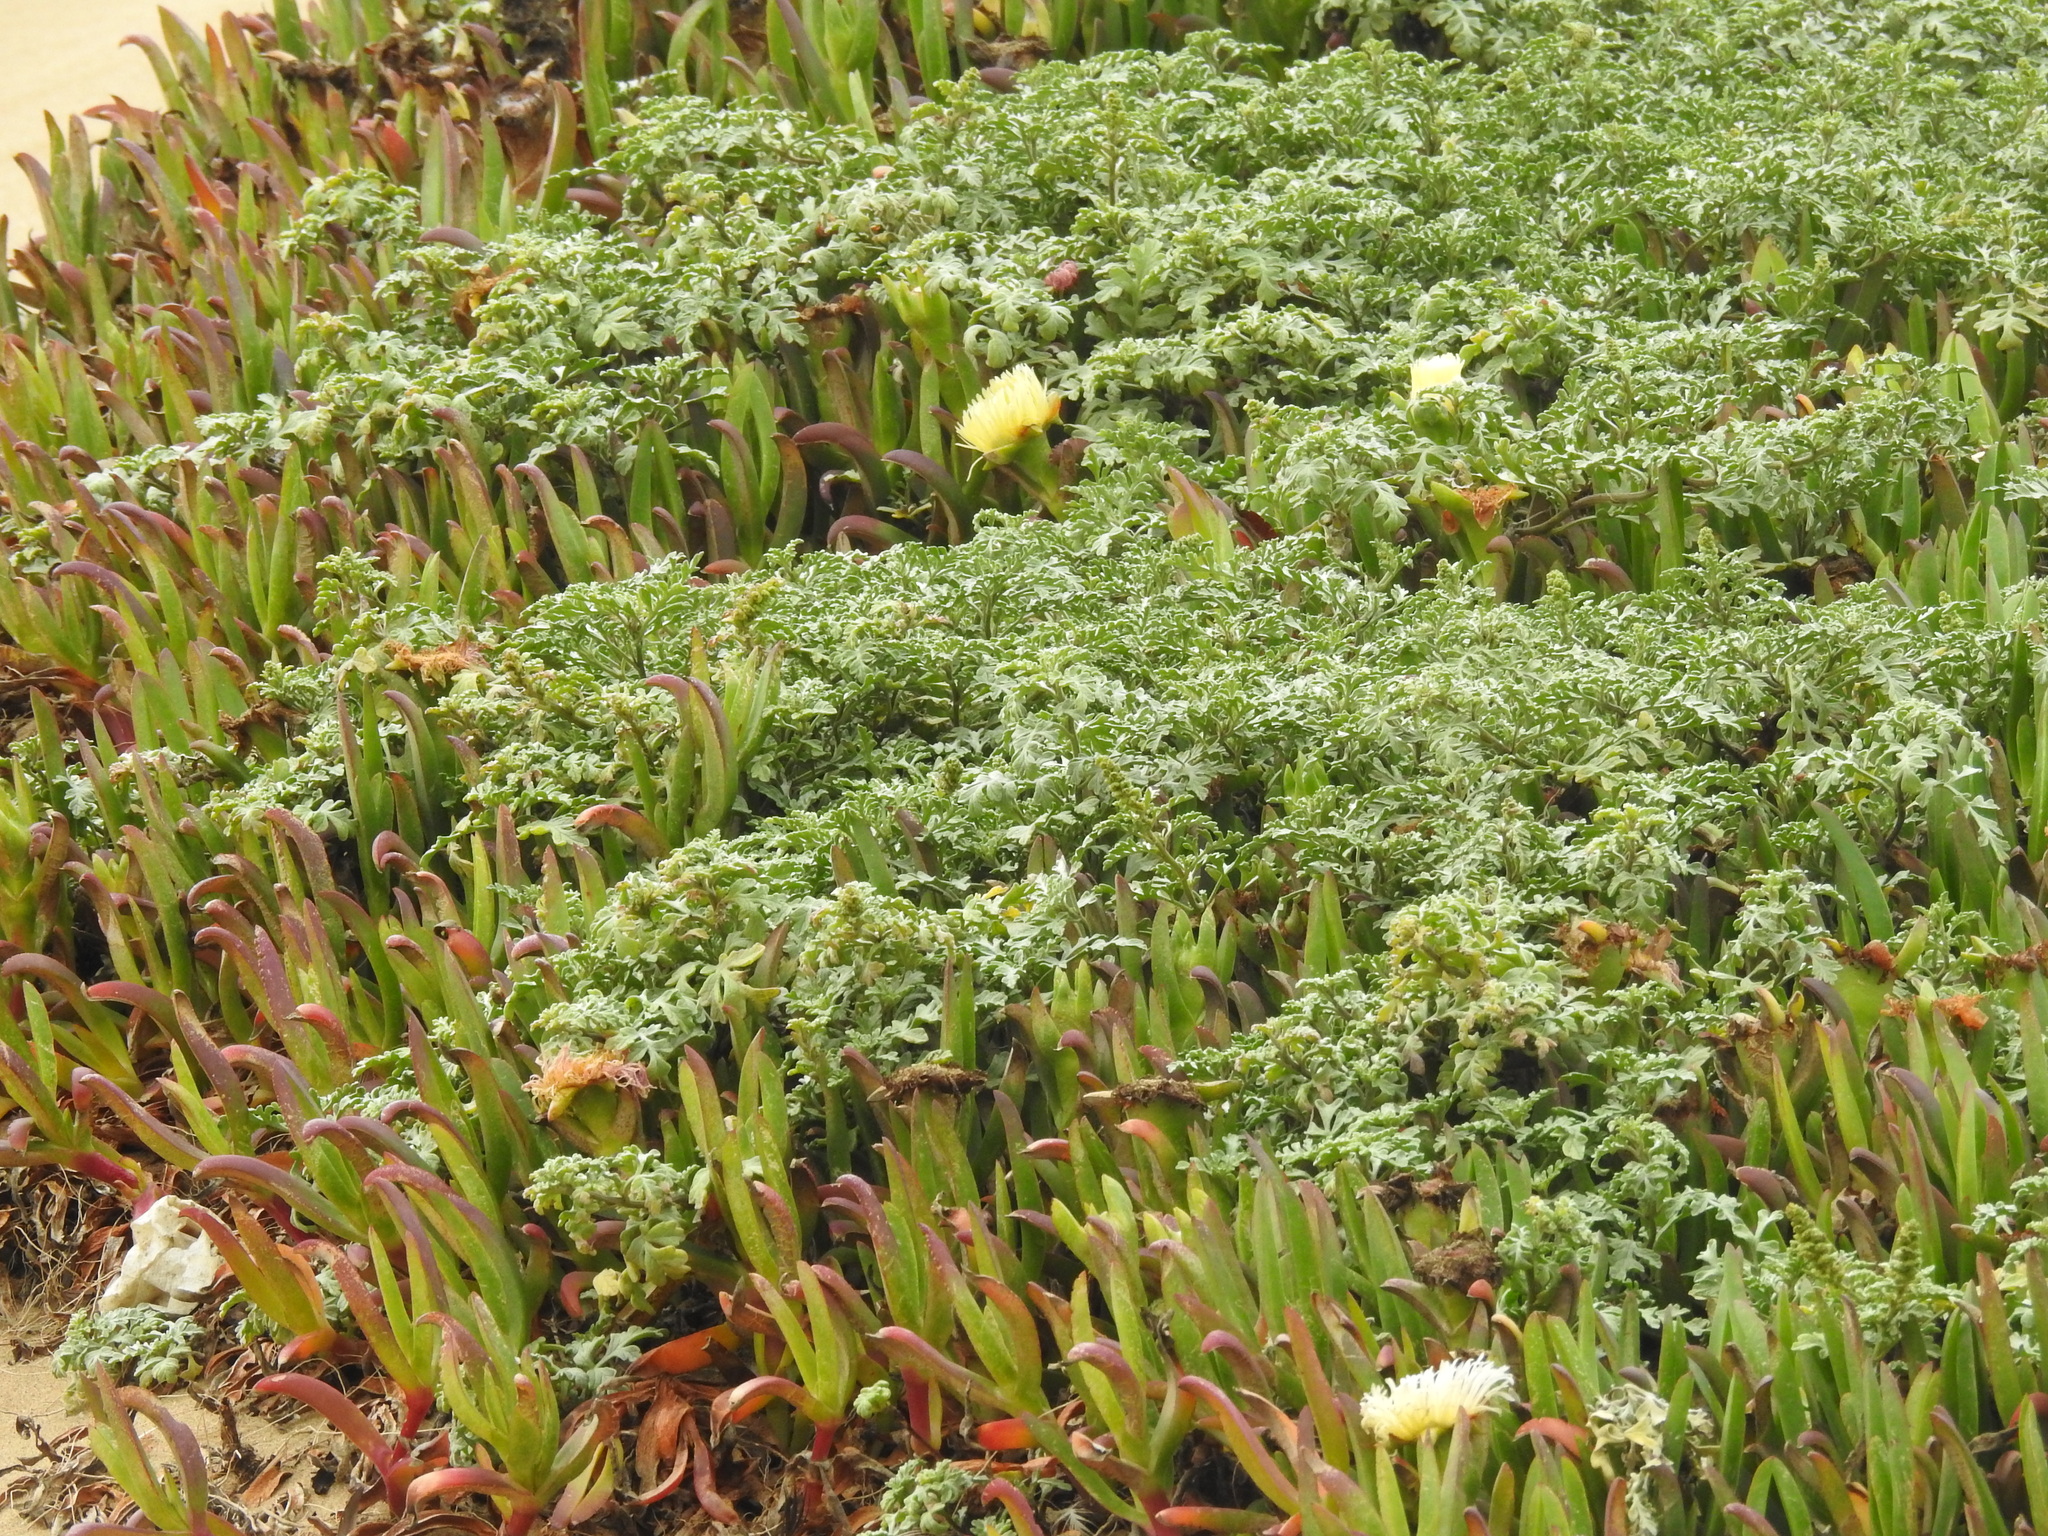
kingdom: Plantae
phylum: Tracheophyta
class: Magnoliopsida
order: Asterales
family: Asteraceae
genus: Ambrosia
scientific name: Ambrosia chamissonis
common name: Beachbur
